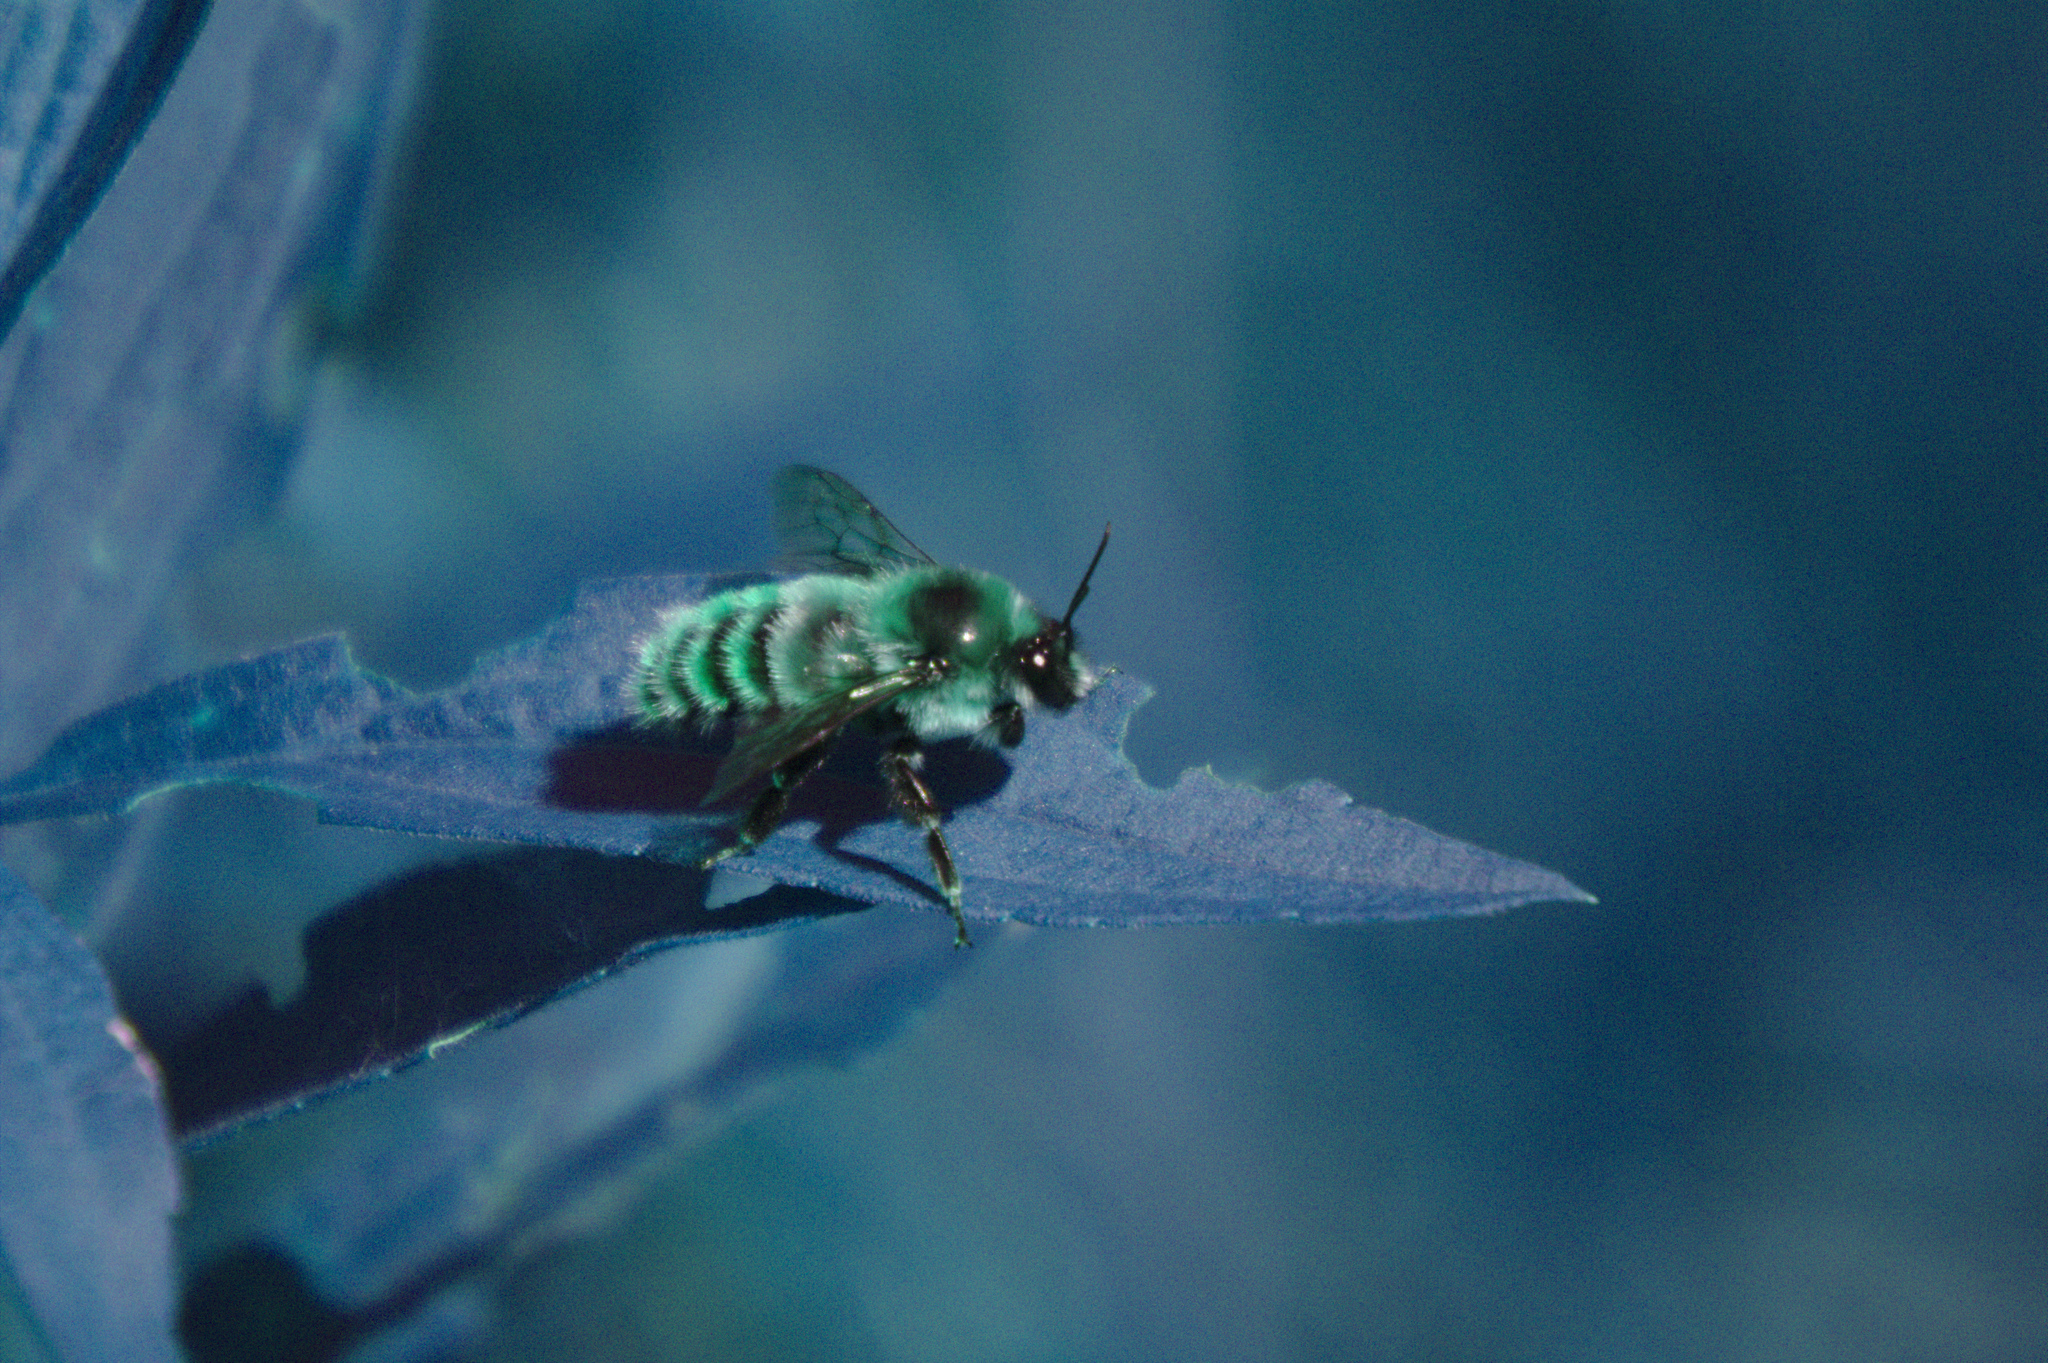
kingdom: Animalia
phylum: Arthropoda
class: Insecta
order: Hymenoptera
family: Apidae
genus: Bombus
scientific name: Bombus rufocinctus
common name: Red-belted bumble bee
